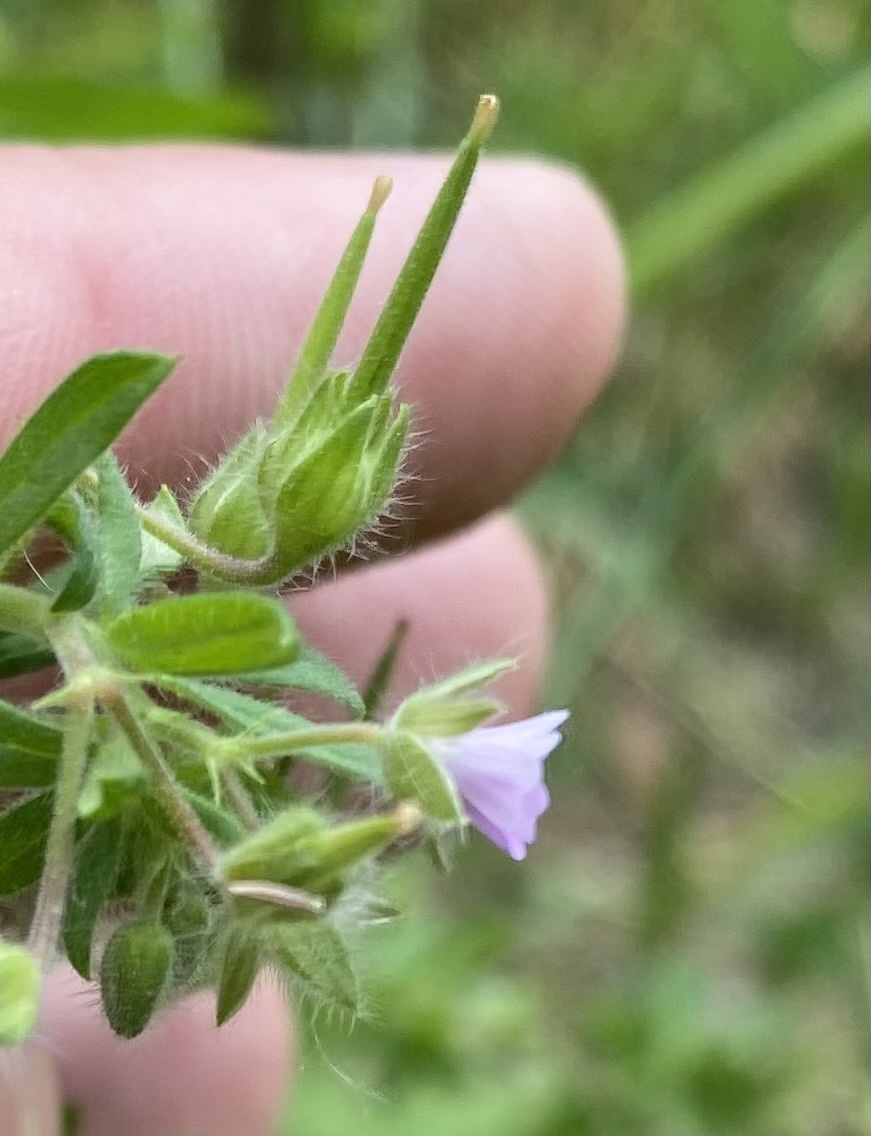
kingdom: Plantae
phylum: Tracheophyta
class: Magnoliopsida
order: Geraniales
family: Geraniaceae
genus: Geranium
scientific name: Geranium pusillum
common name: Small geranium
